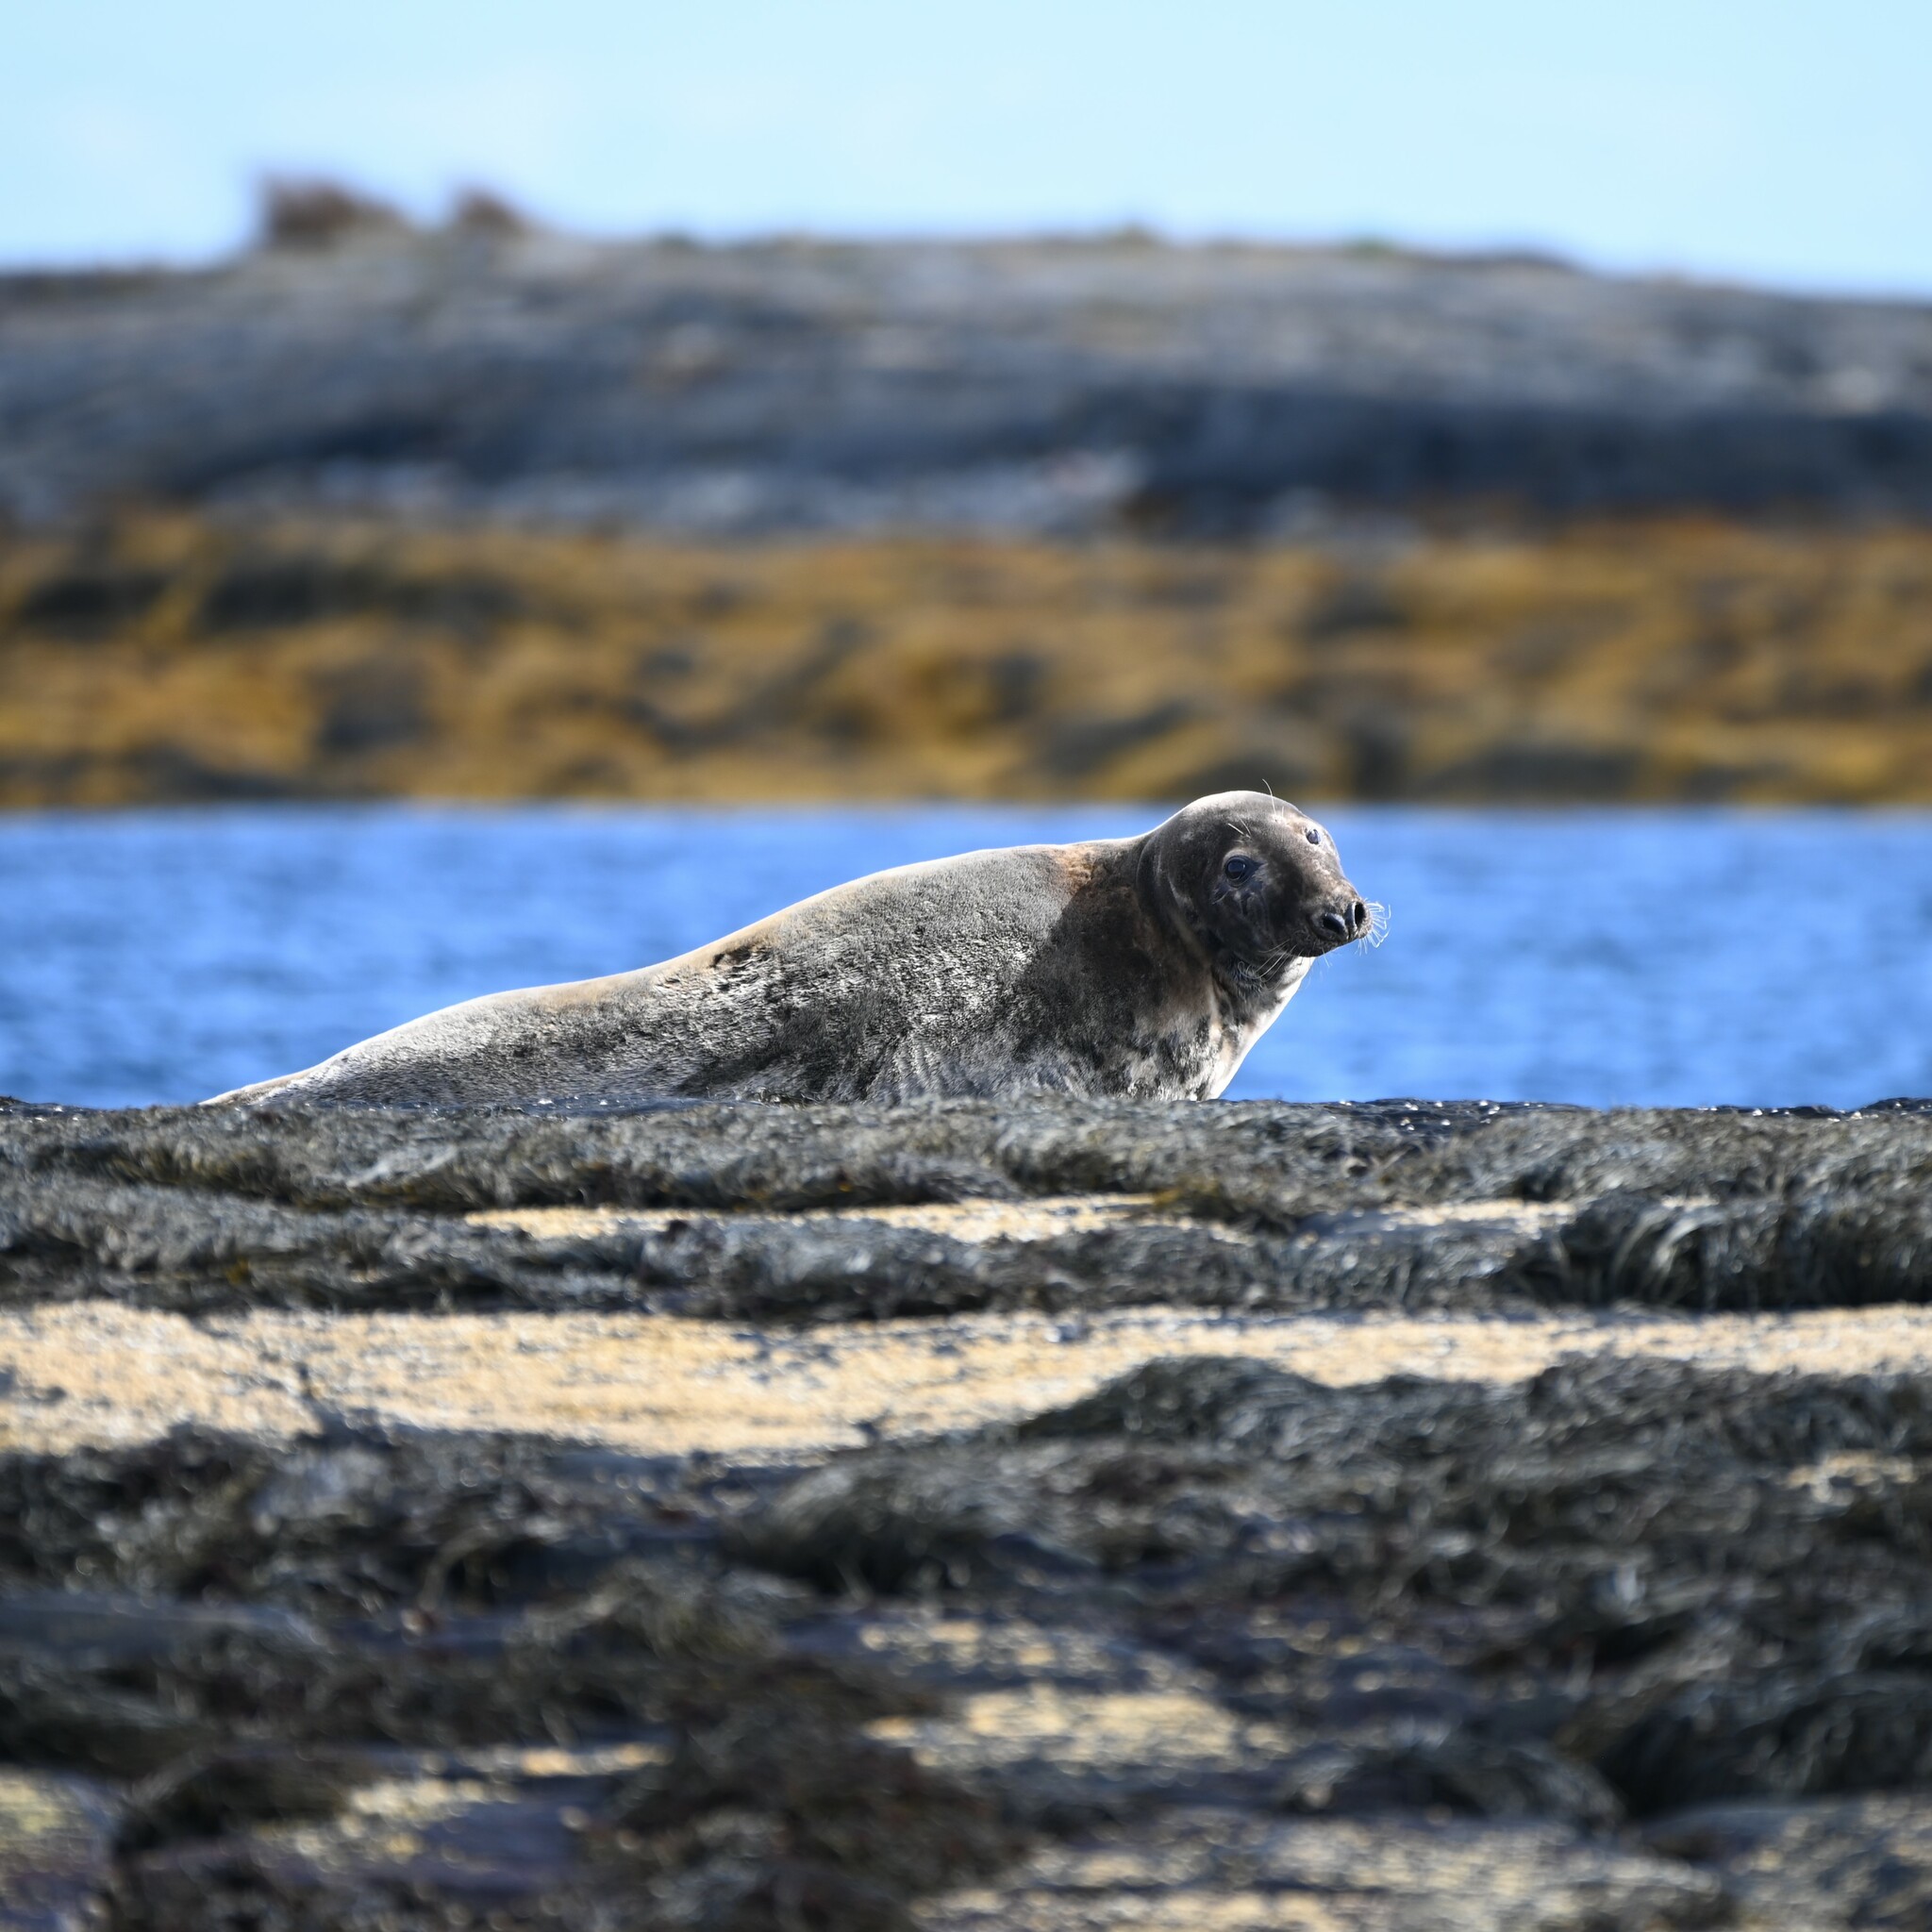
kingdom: Animalia
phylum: Chordata
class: Mammalia
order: Carnivora
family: Phocidae
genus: Halichoerus
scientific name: Halichoerus grypus
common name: Grey seal
